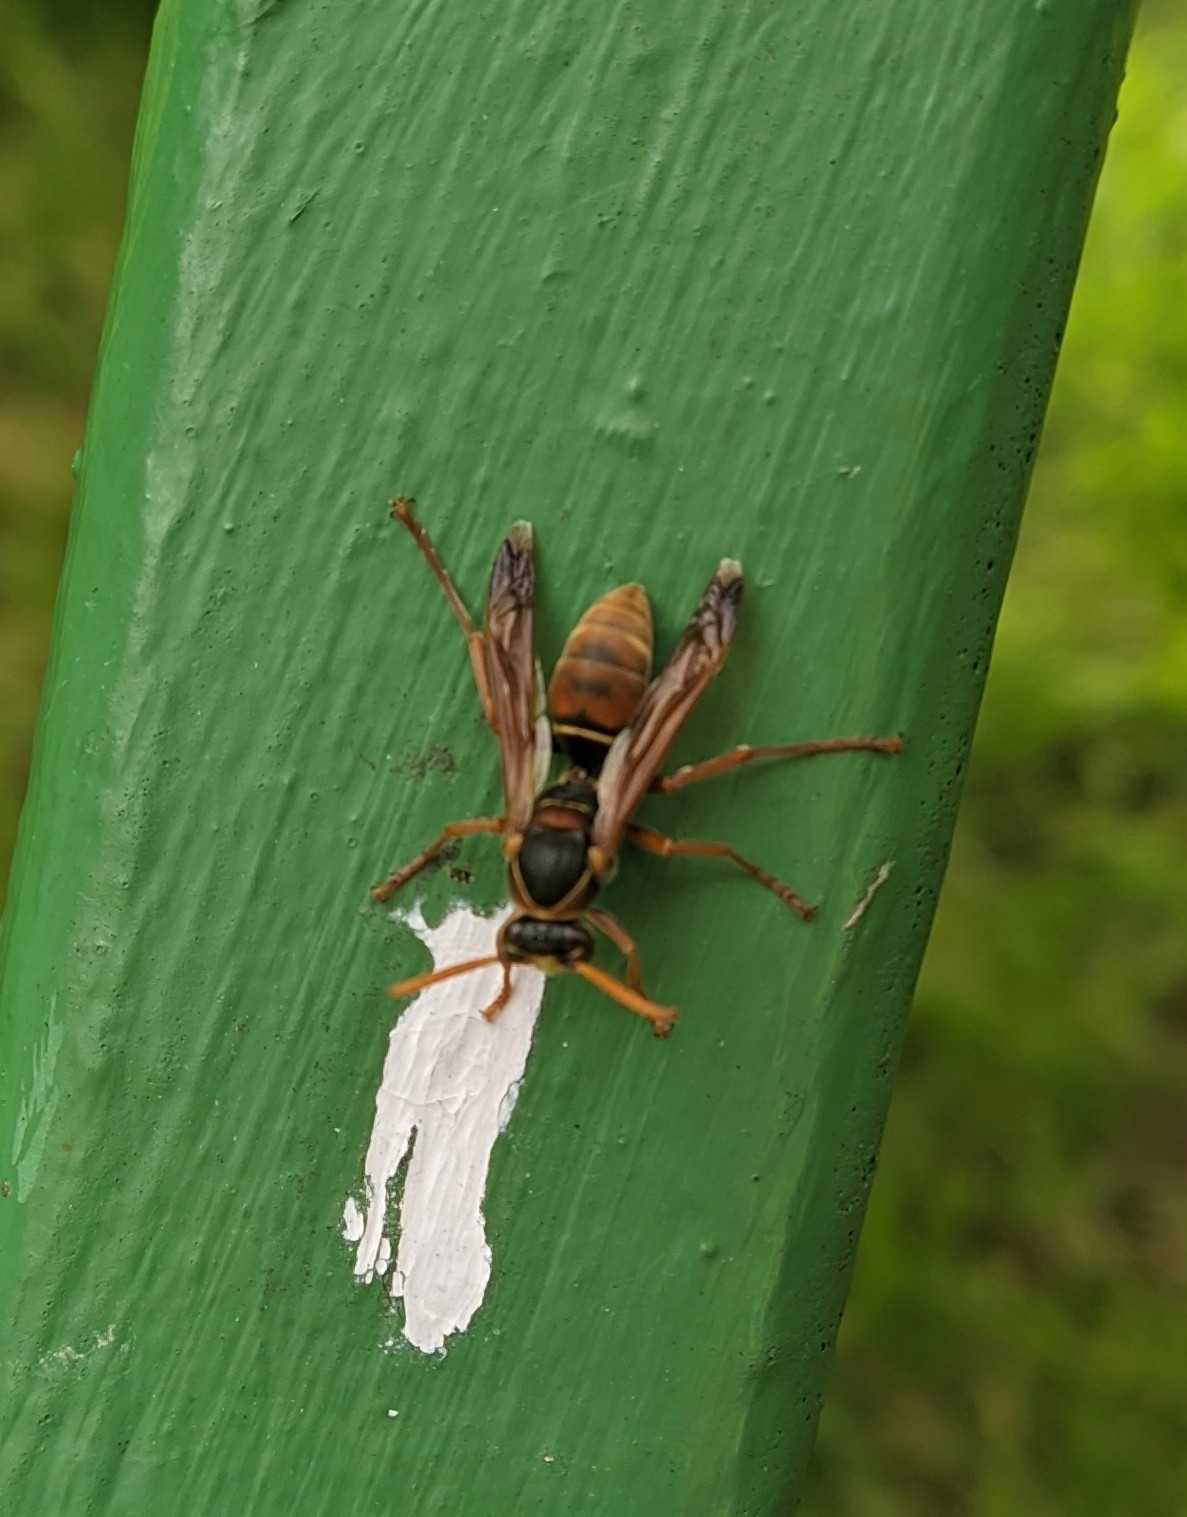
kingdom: Animalia
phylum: Arthropoda
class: Insecta
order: Hymenoptera
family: Eumenidae
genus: Polistes
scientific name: Polistes humilis
